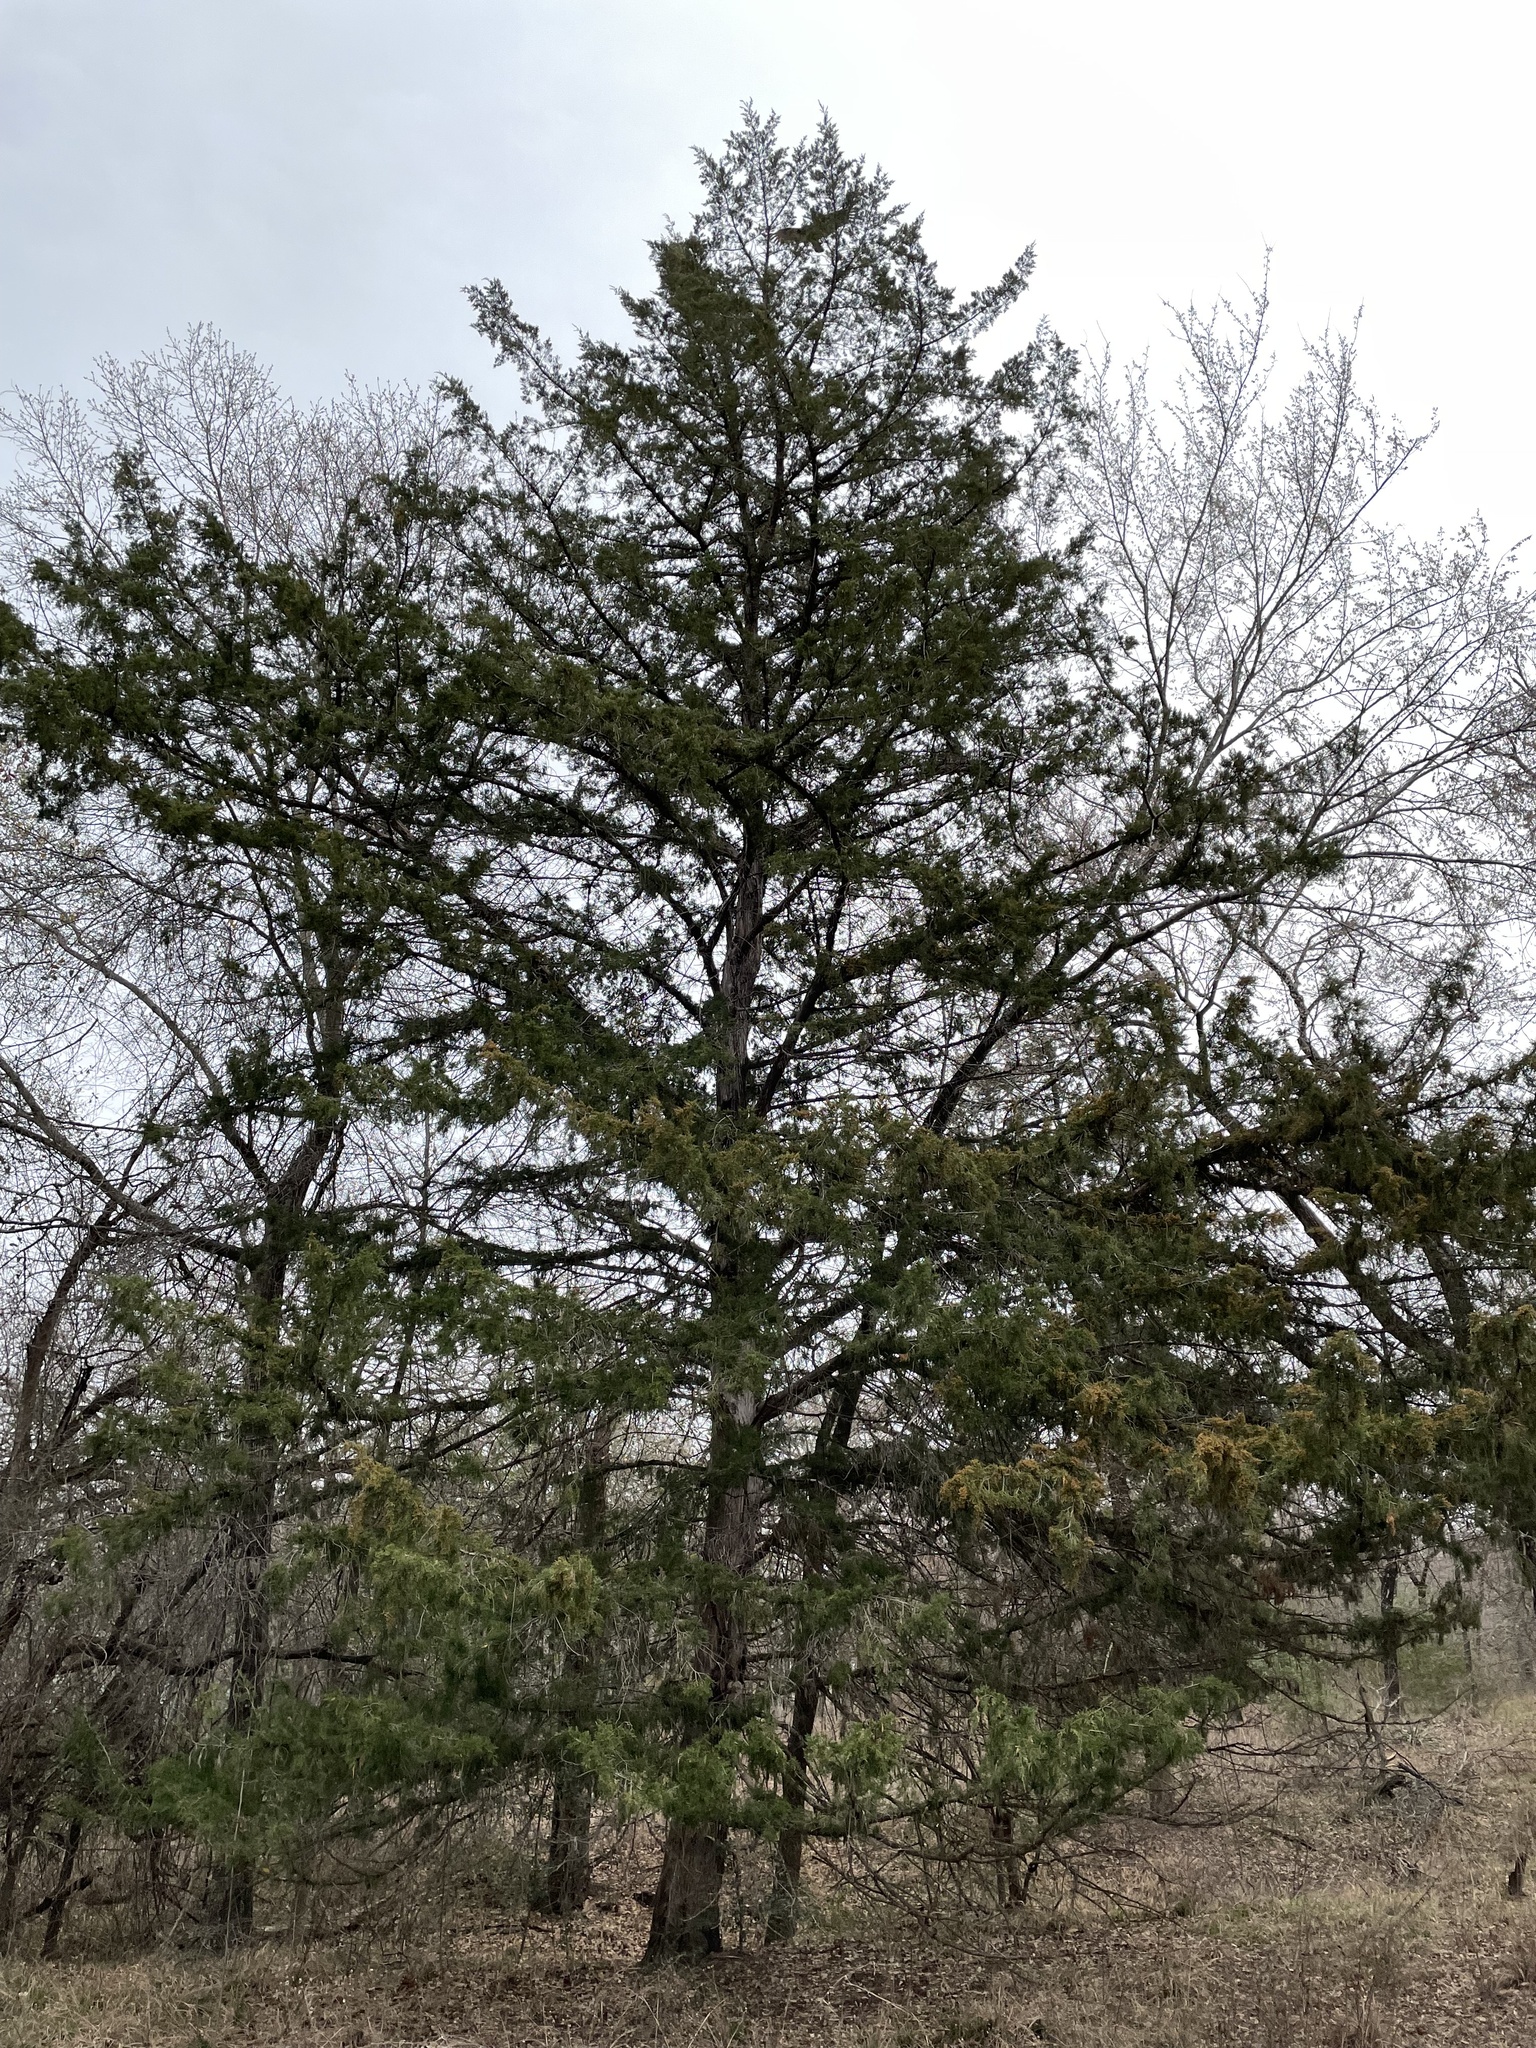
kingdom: Plantae
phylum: Tracheophyta
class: Pinopsida
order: Pinales
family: Cupressaceae
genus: Juniperus
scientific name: Juniperus virginiana
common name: Red juniper
